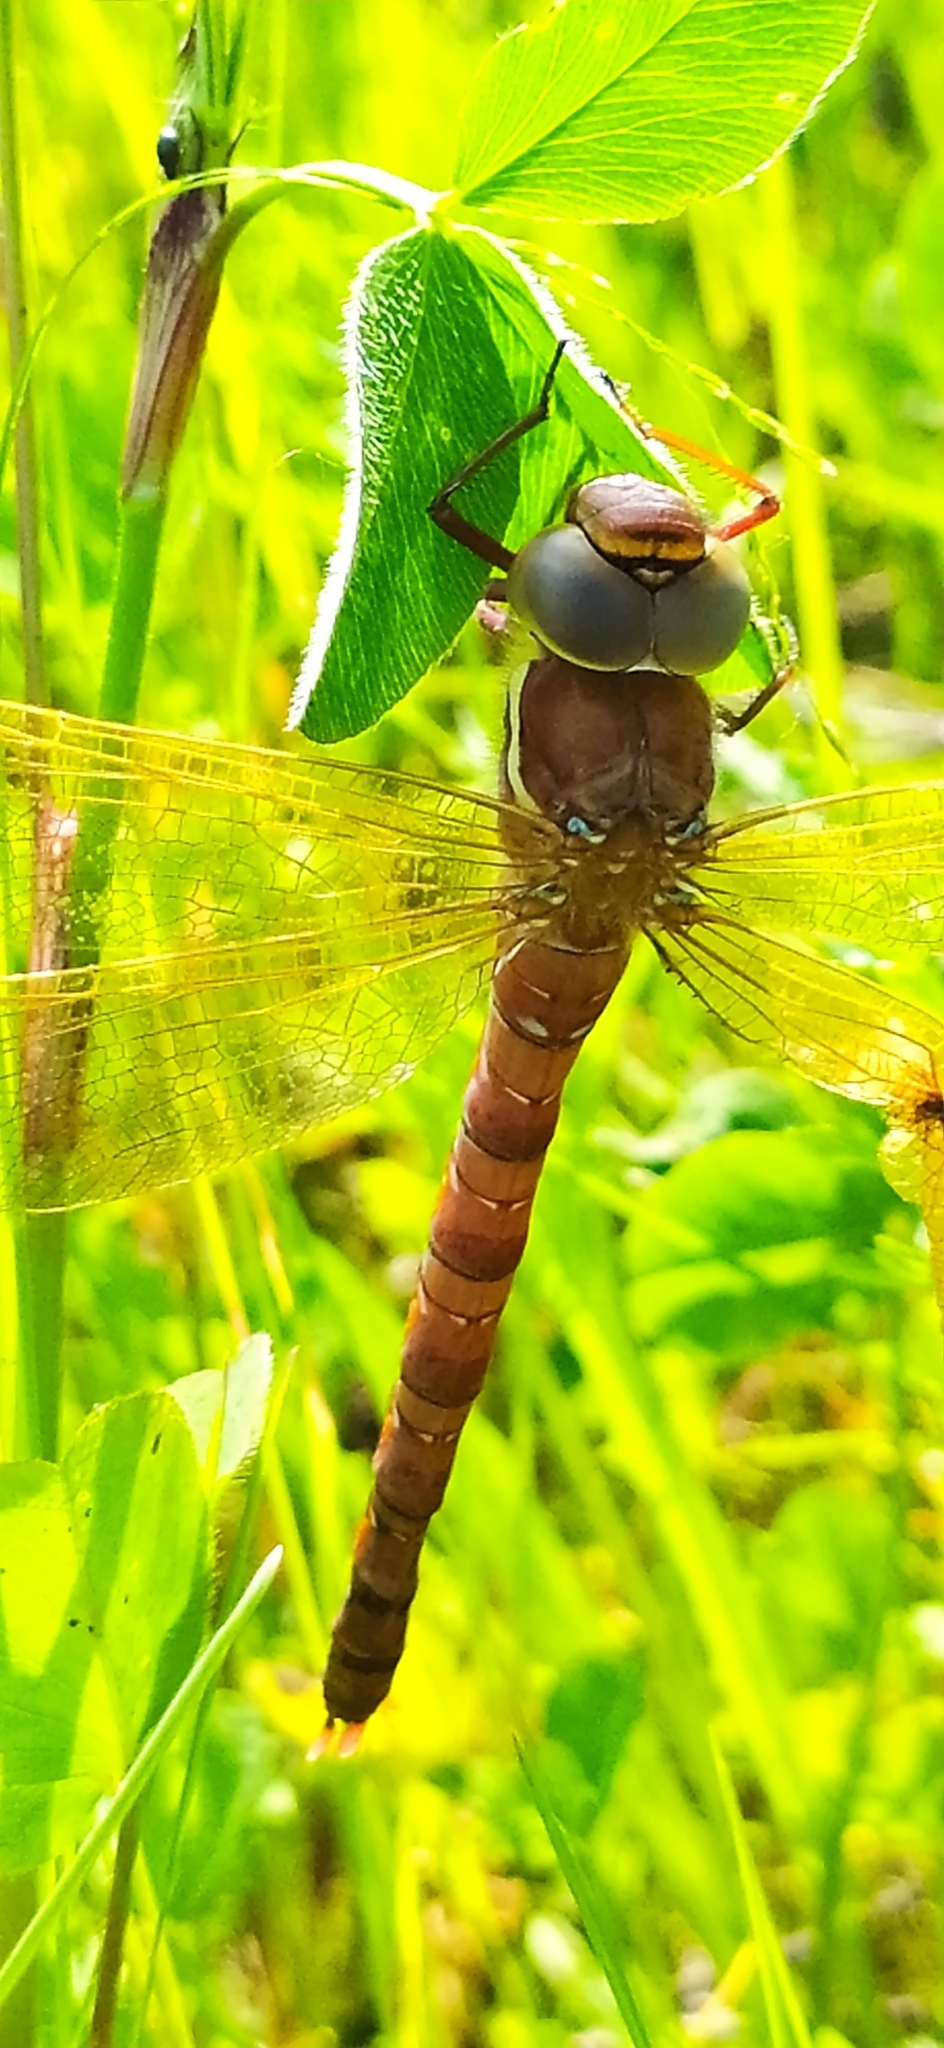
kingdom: Animalia
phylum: Arthropoda
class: Insecta
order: Odonata
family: Aeshnidae
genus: Aeshna
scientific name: Aeshna grandis
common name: Brown hawker
